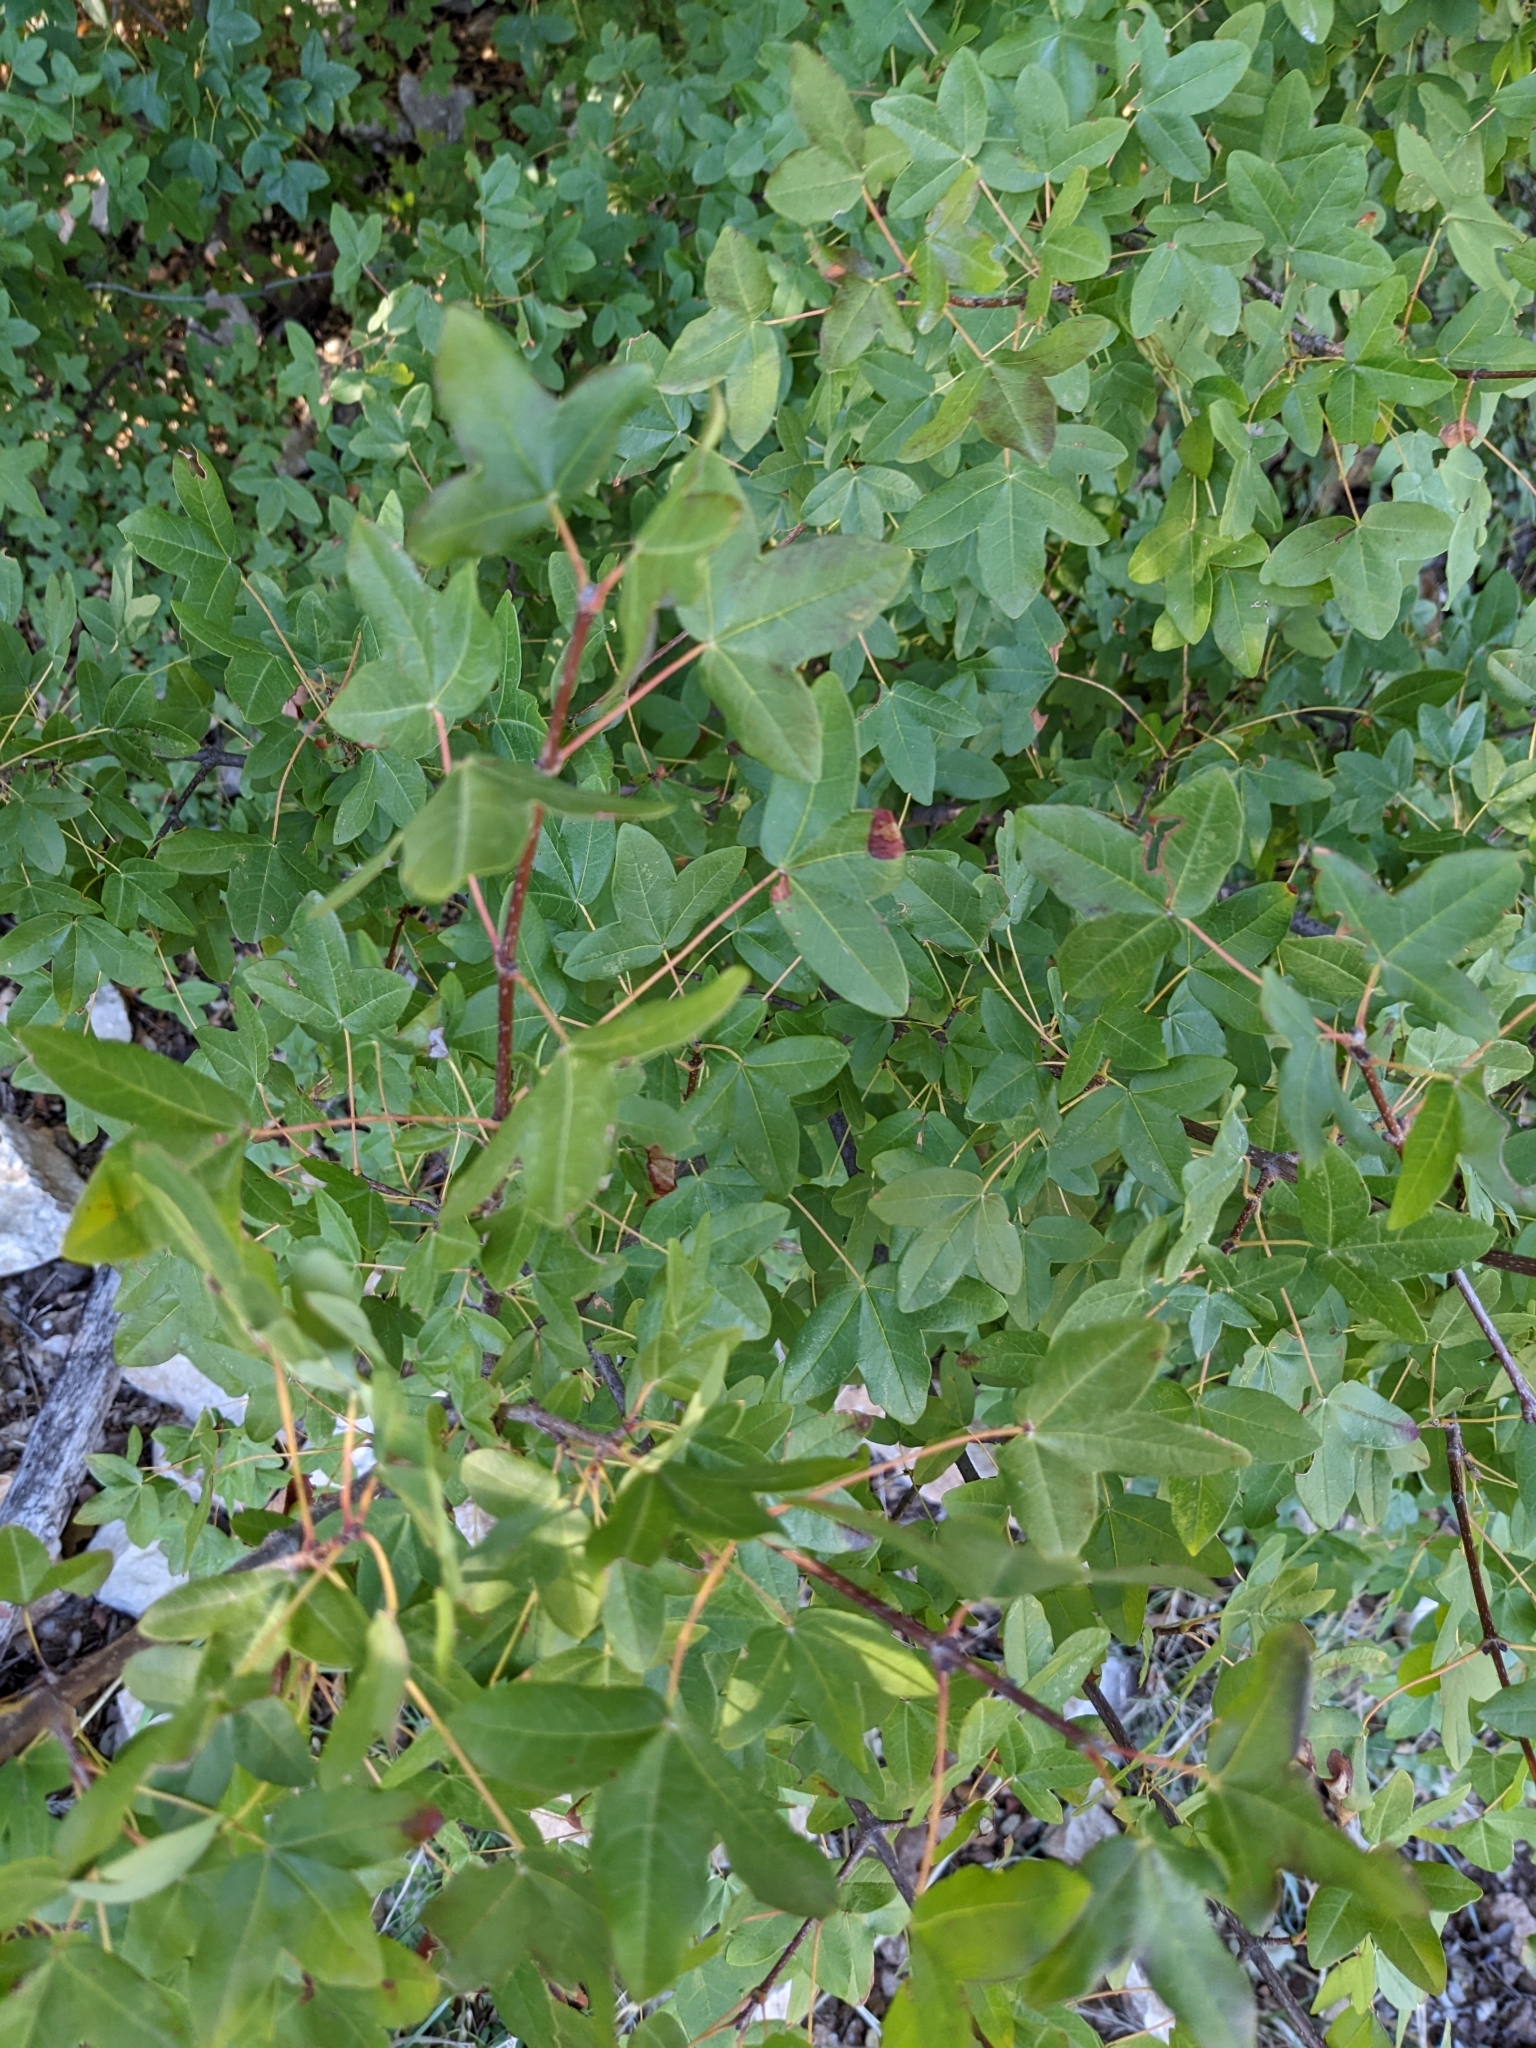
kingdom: Plantae
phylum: Tracheophyta
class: Magnoliopsida
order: Sapindales
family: Sapindaceae
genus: Acer
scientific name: Acer monspessulanum
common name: Montpellier maple
